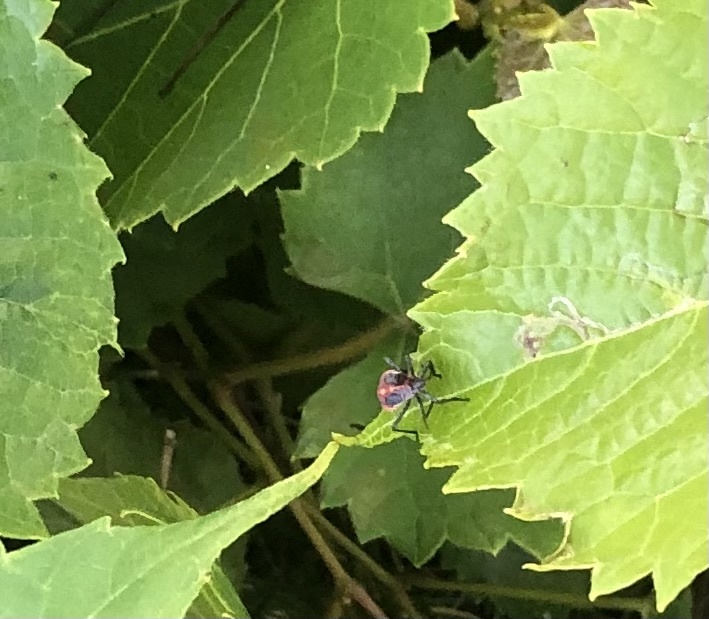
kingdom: Animalia
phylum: Arthropoda
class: Insecta
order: Hemiptera
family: Rhopalidae
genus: Boisea
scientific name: Boisea trivittata
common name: Boxelder bug
